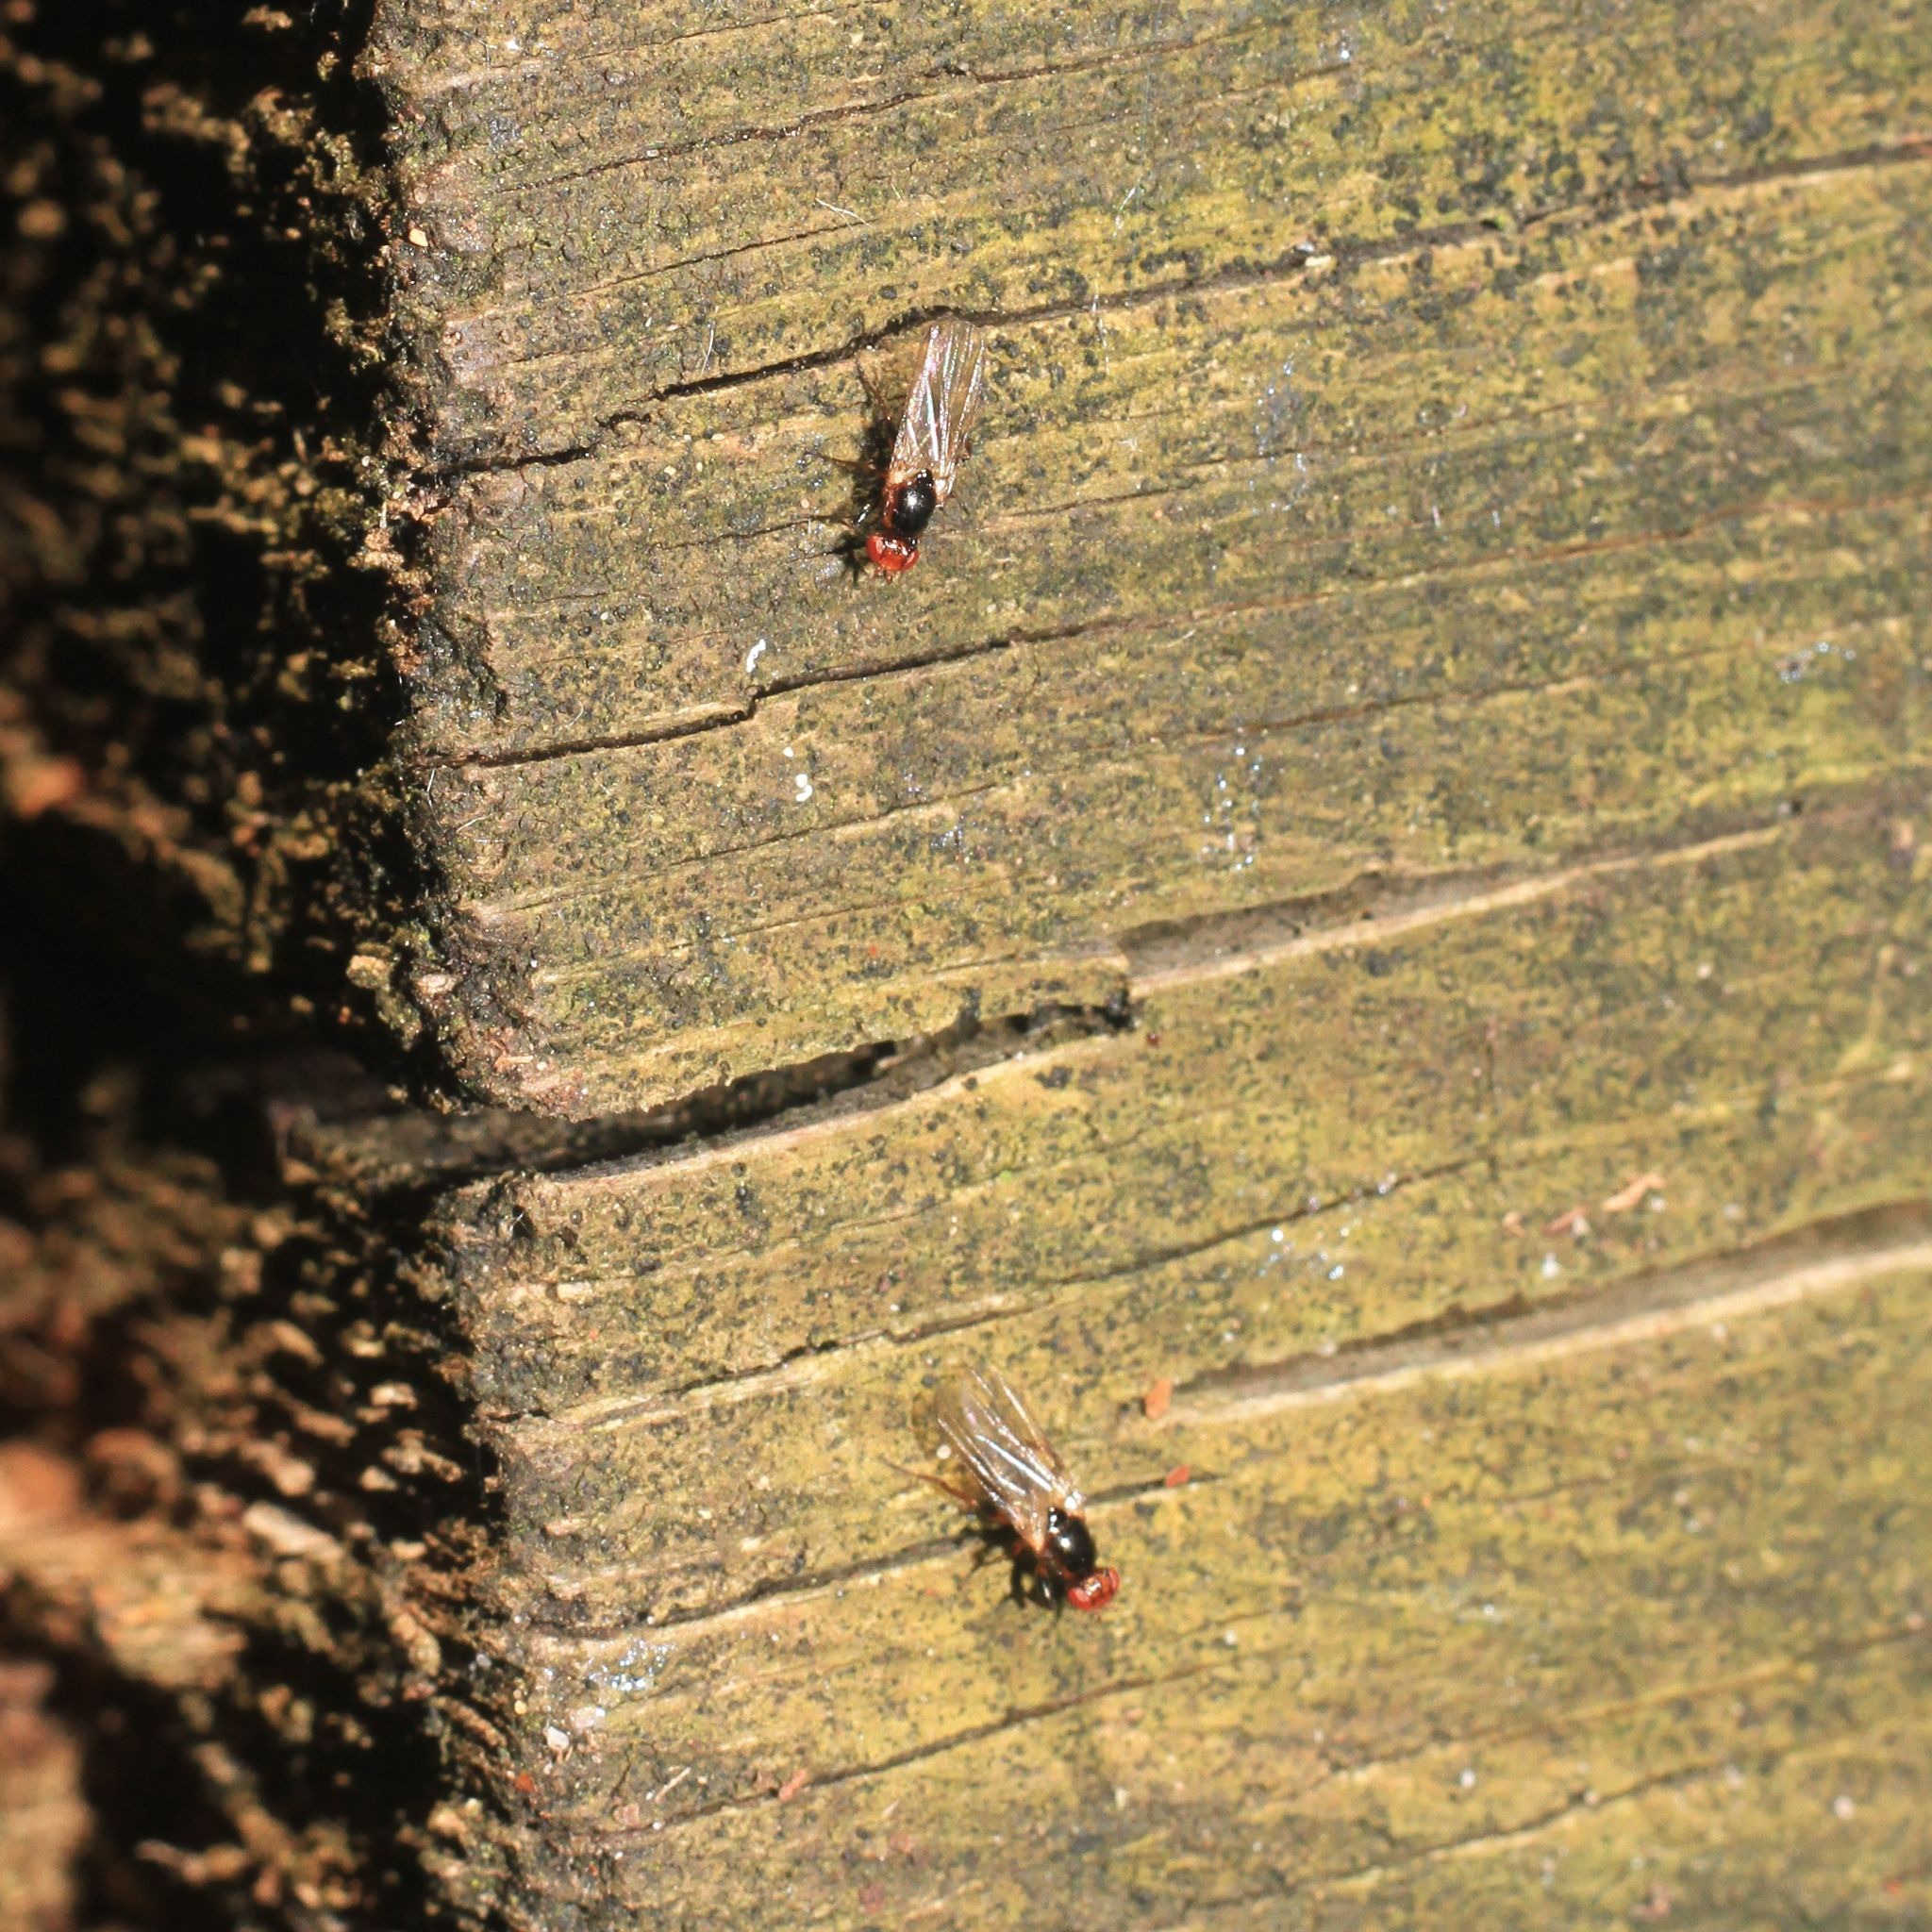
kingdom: Animalia
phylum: Arthropoda
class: Insecta
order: Diptera
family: Piophilidae
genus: Allopiophila
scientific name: Allopiophila luteata
